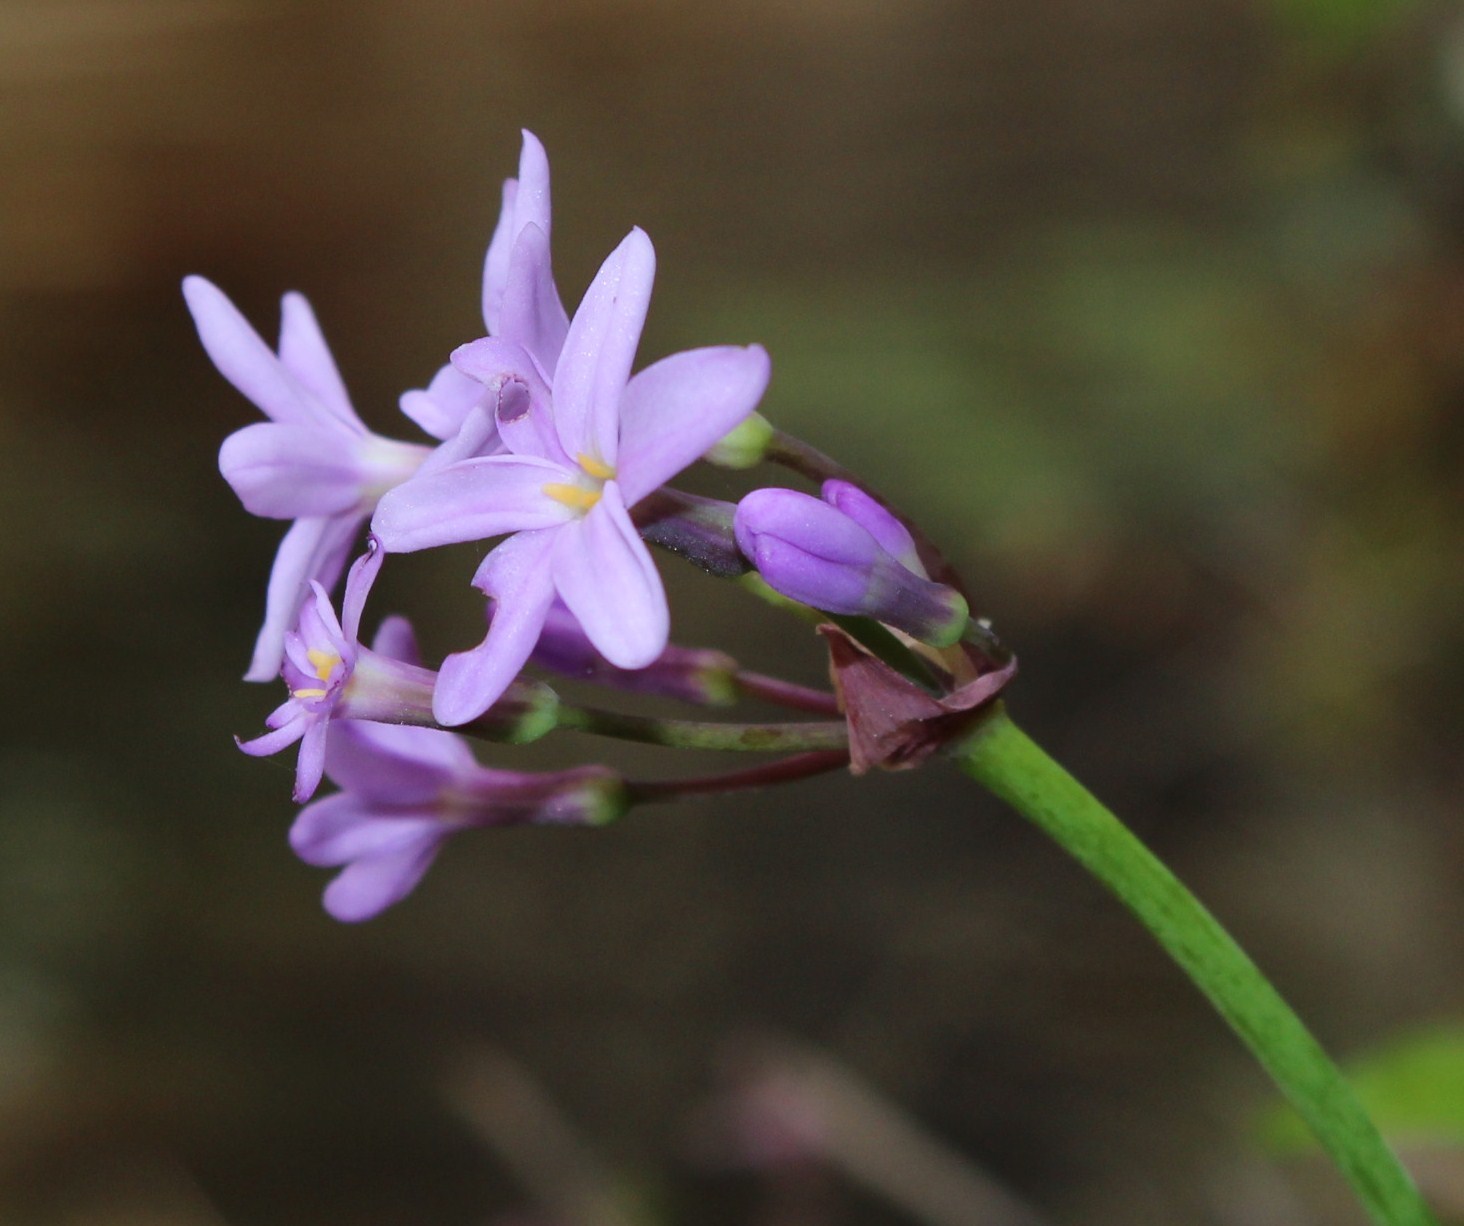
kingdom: Plantae
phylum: Tracheophyta
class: Liliopsida
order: Asparagales
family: Amaryllidaceae
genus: Tulbaghia
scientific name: Tulbaghia maritima
